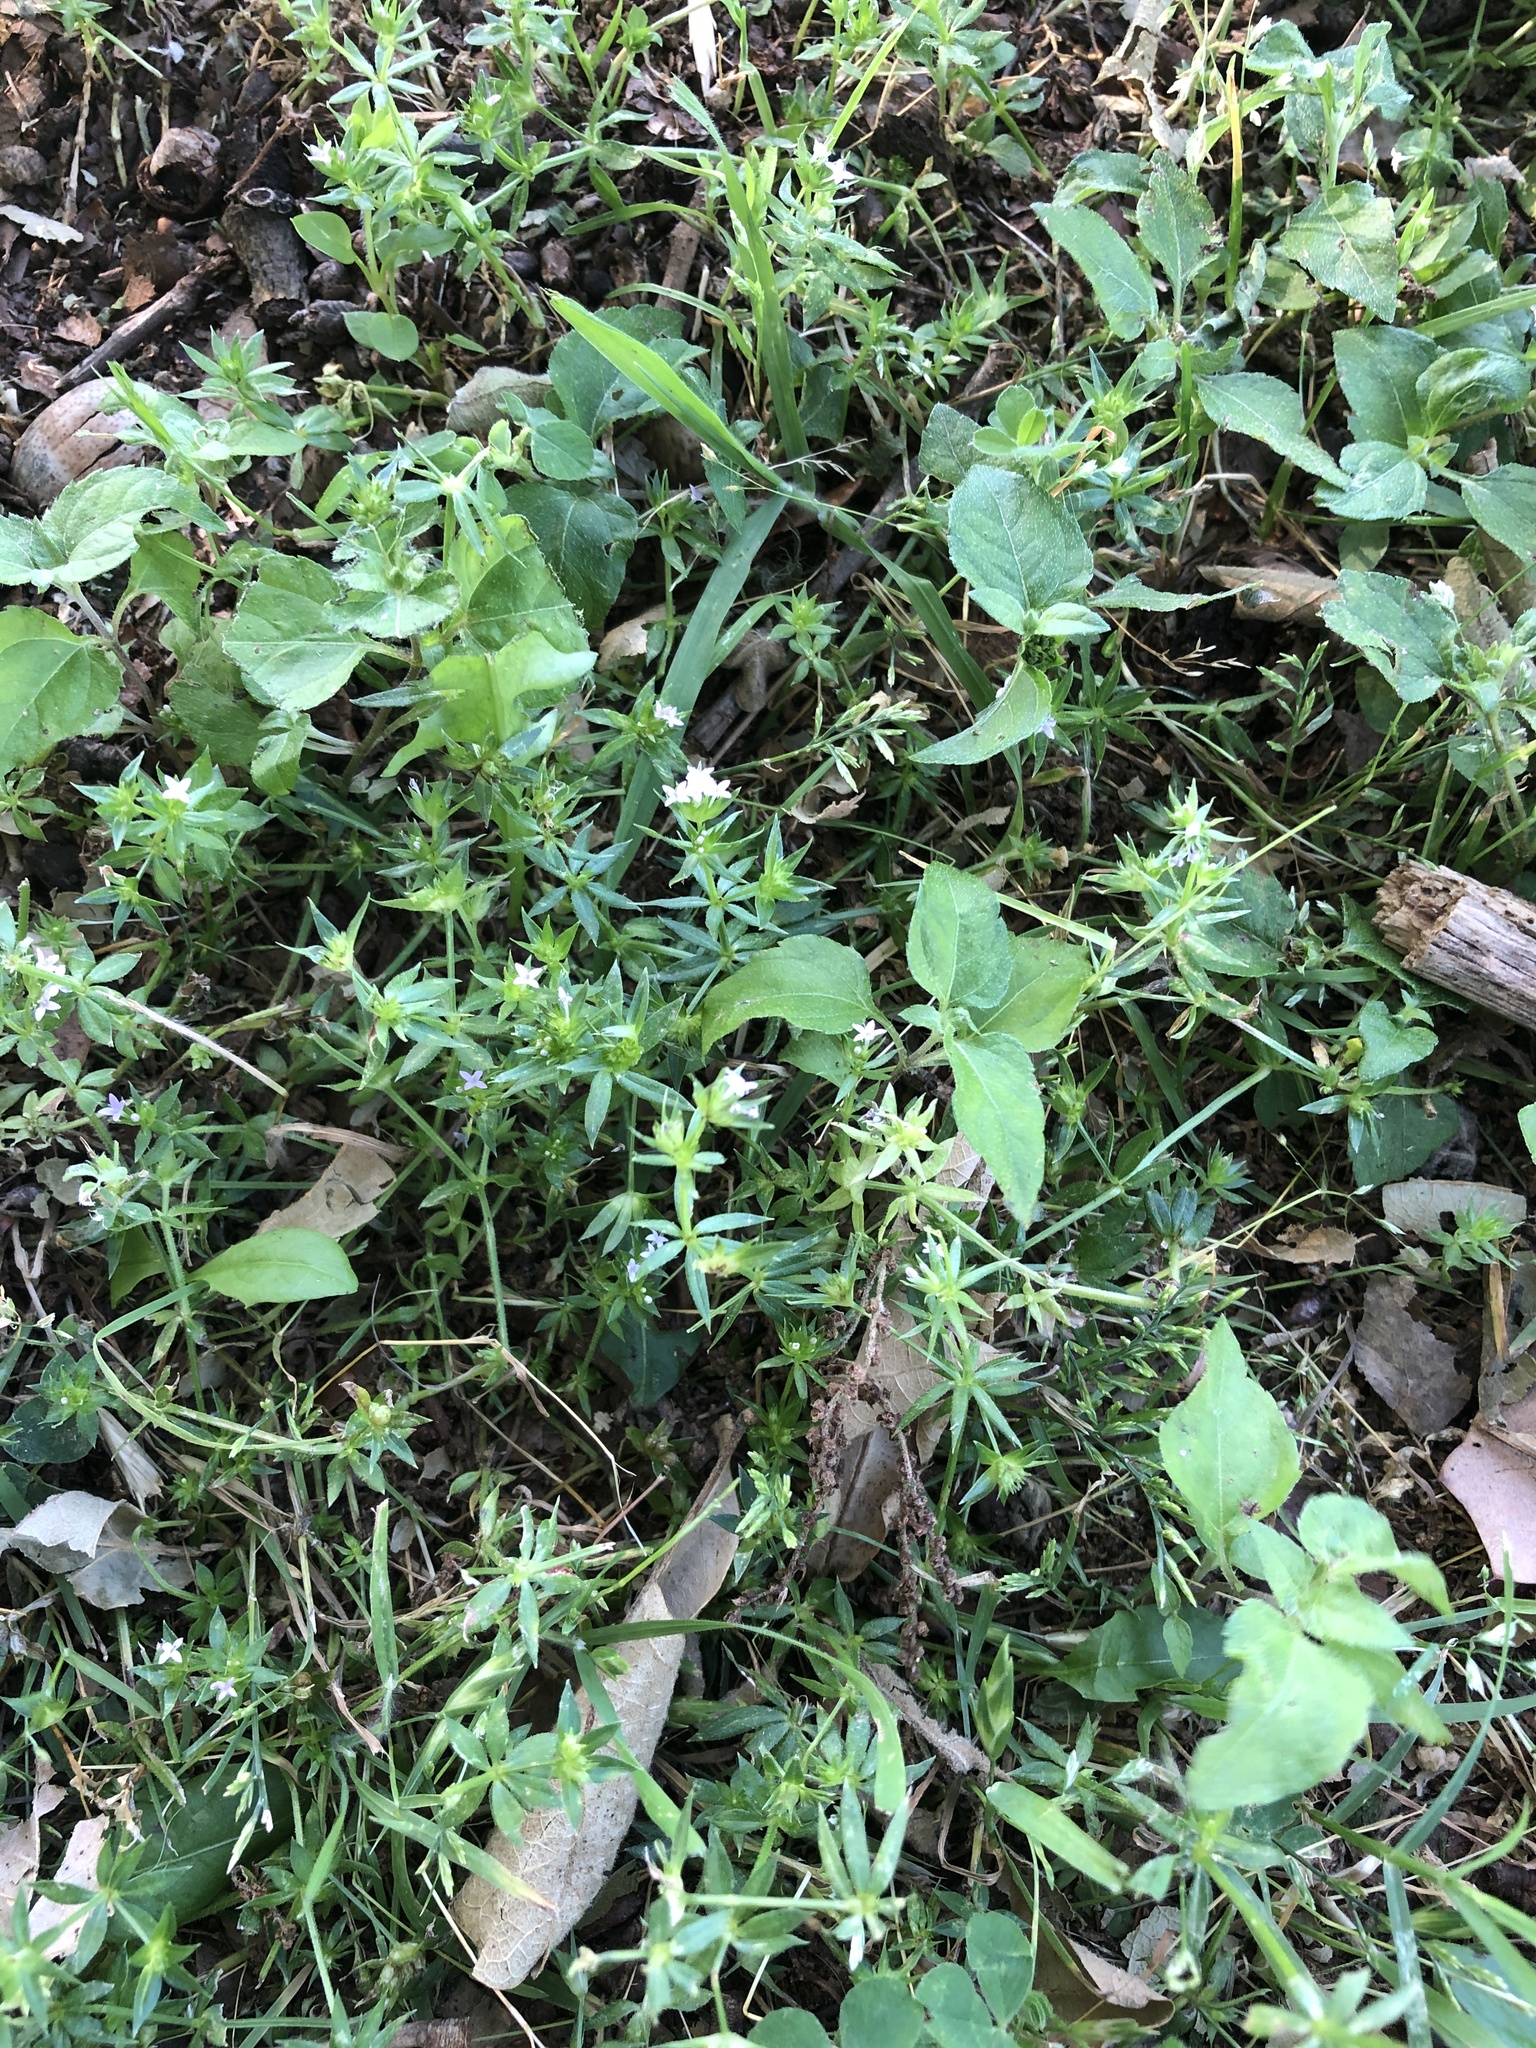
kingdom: Plantae
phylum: Tracheophyta
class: Magnoliopsida
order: Gentianales
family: Rubiaceae
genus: Sherardia
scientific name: Sherardia arvensis
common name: Field madder
